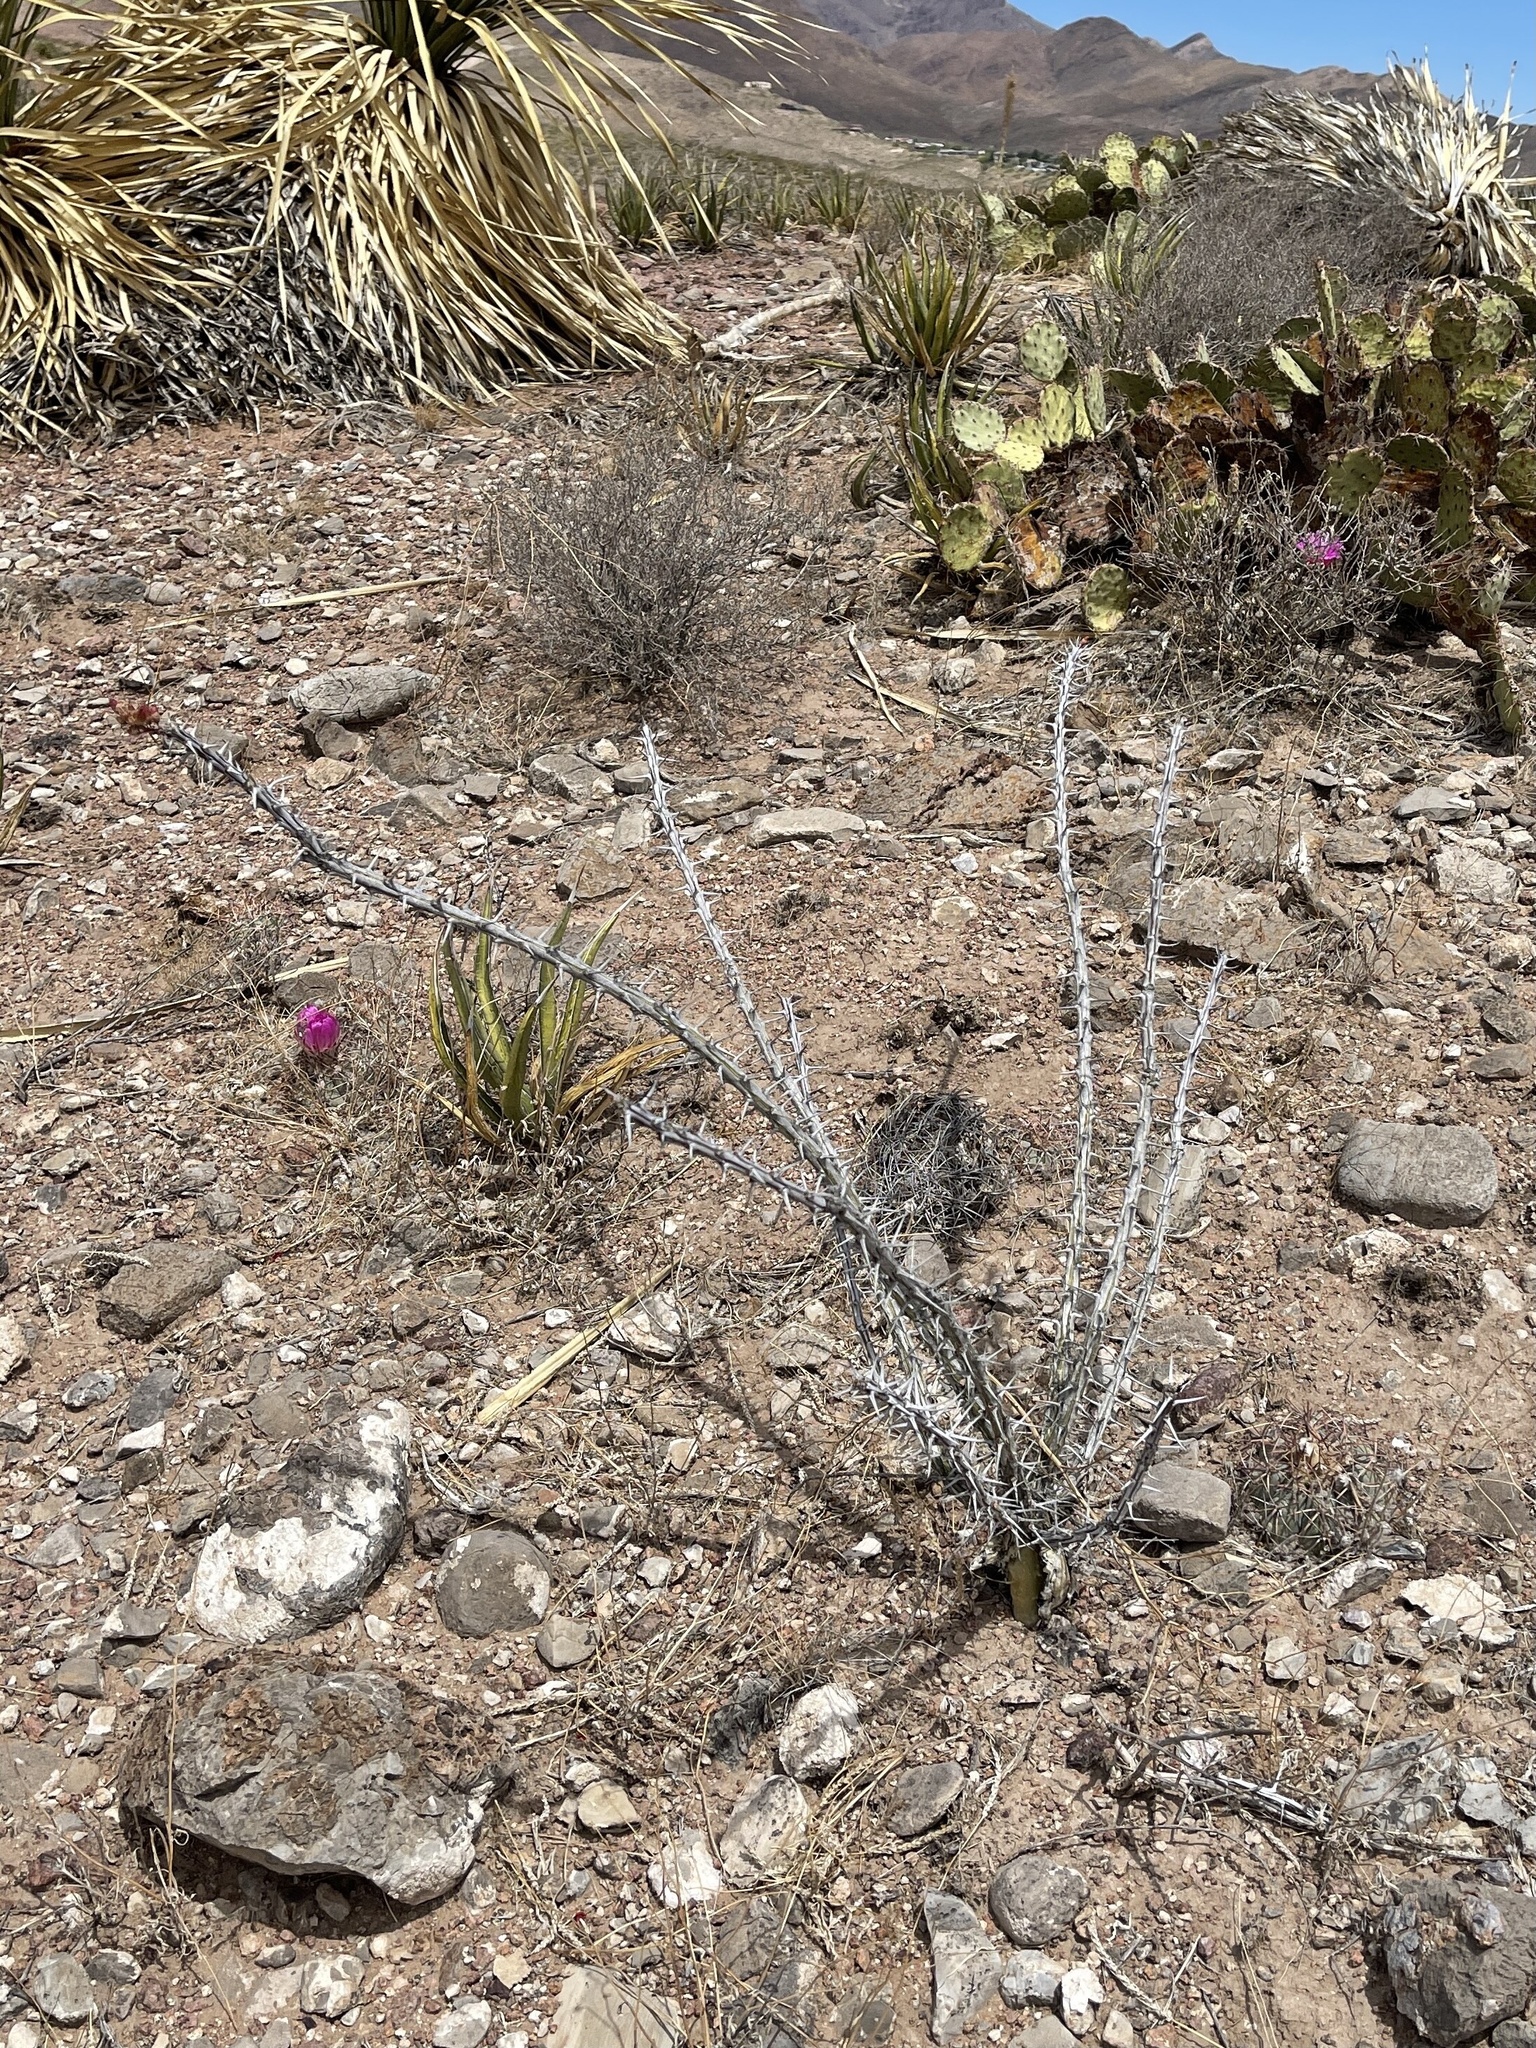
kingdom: Plantae
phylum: Tracheophyta
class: Magnoliopsida
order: Ericales
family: Fouquieriaceae
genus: Fouquieria
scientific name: Fouquieria splendens
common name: Vine-cactus
